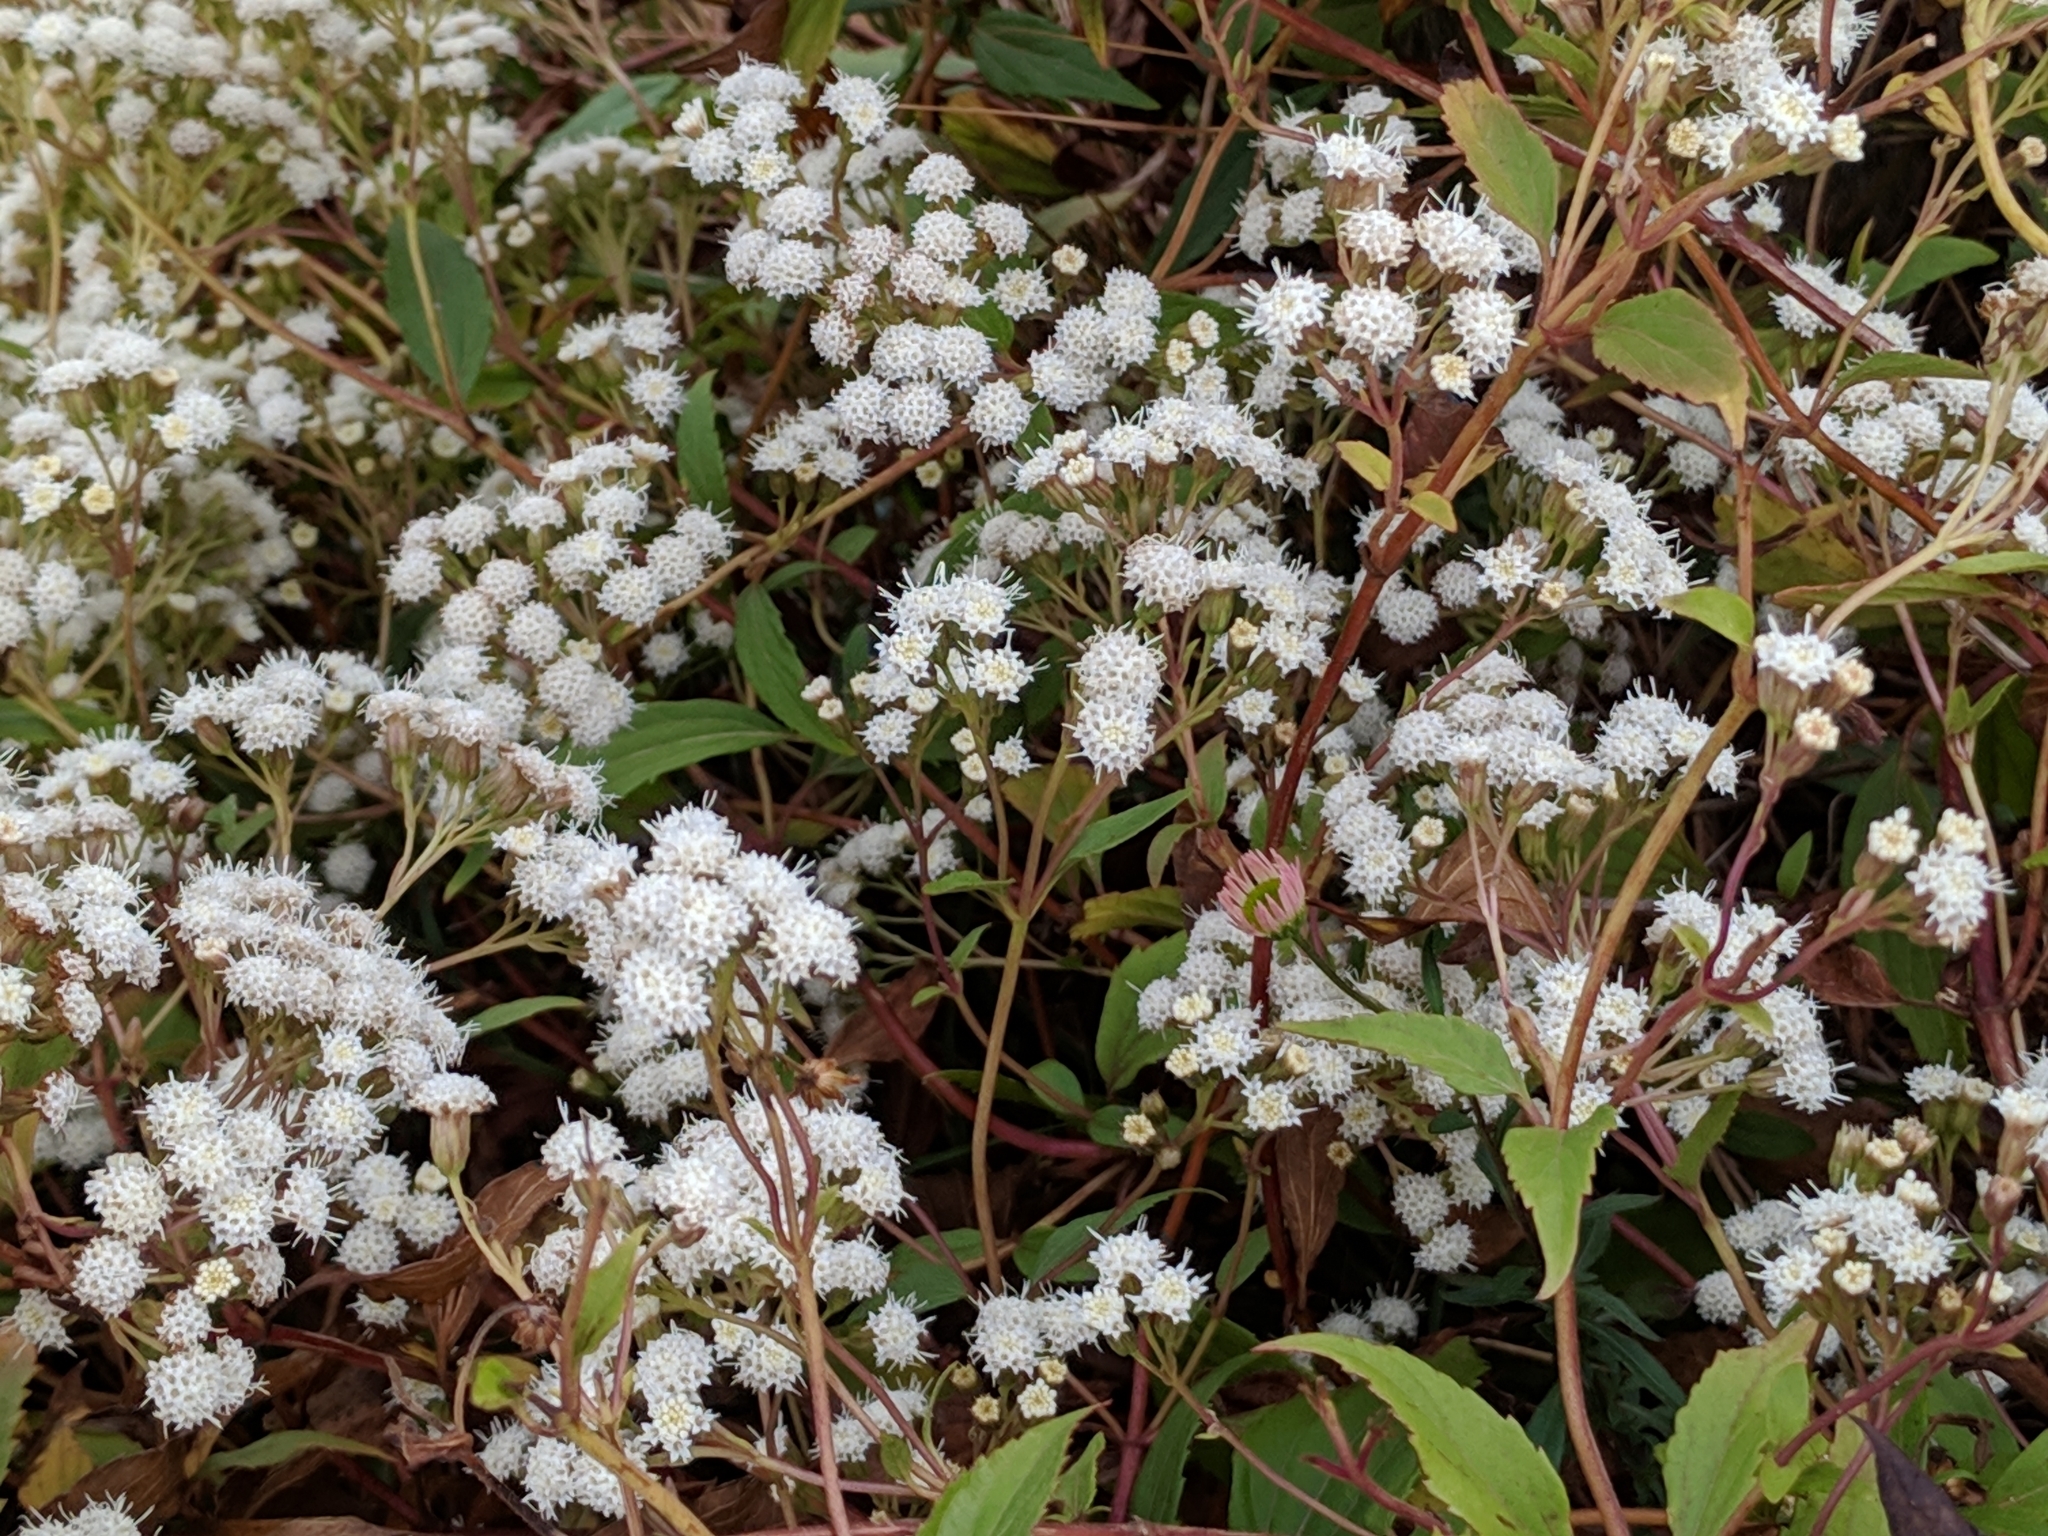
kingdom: Plantae
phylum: Tracheophyta
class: Magnoliopsida
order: Asterales
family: Asteraceae
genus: Ageratina
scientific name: Ageratina riparia
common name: Creeping croftonweed
